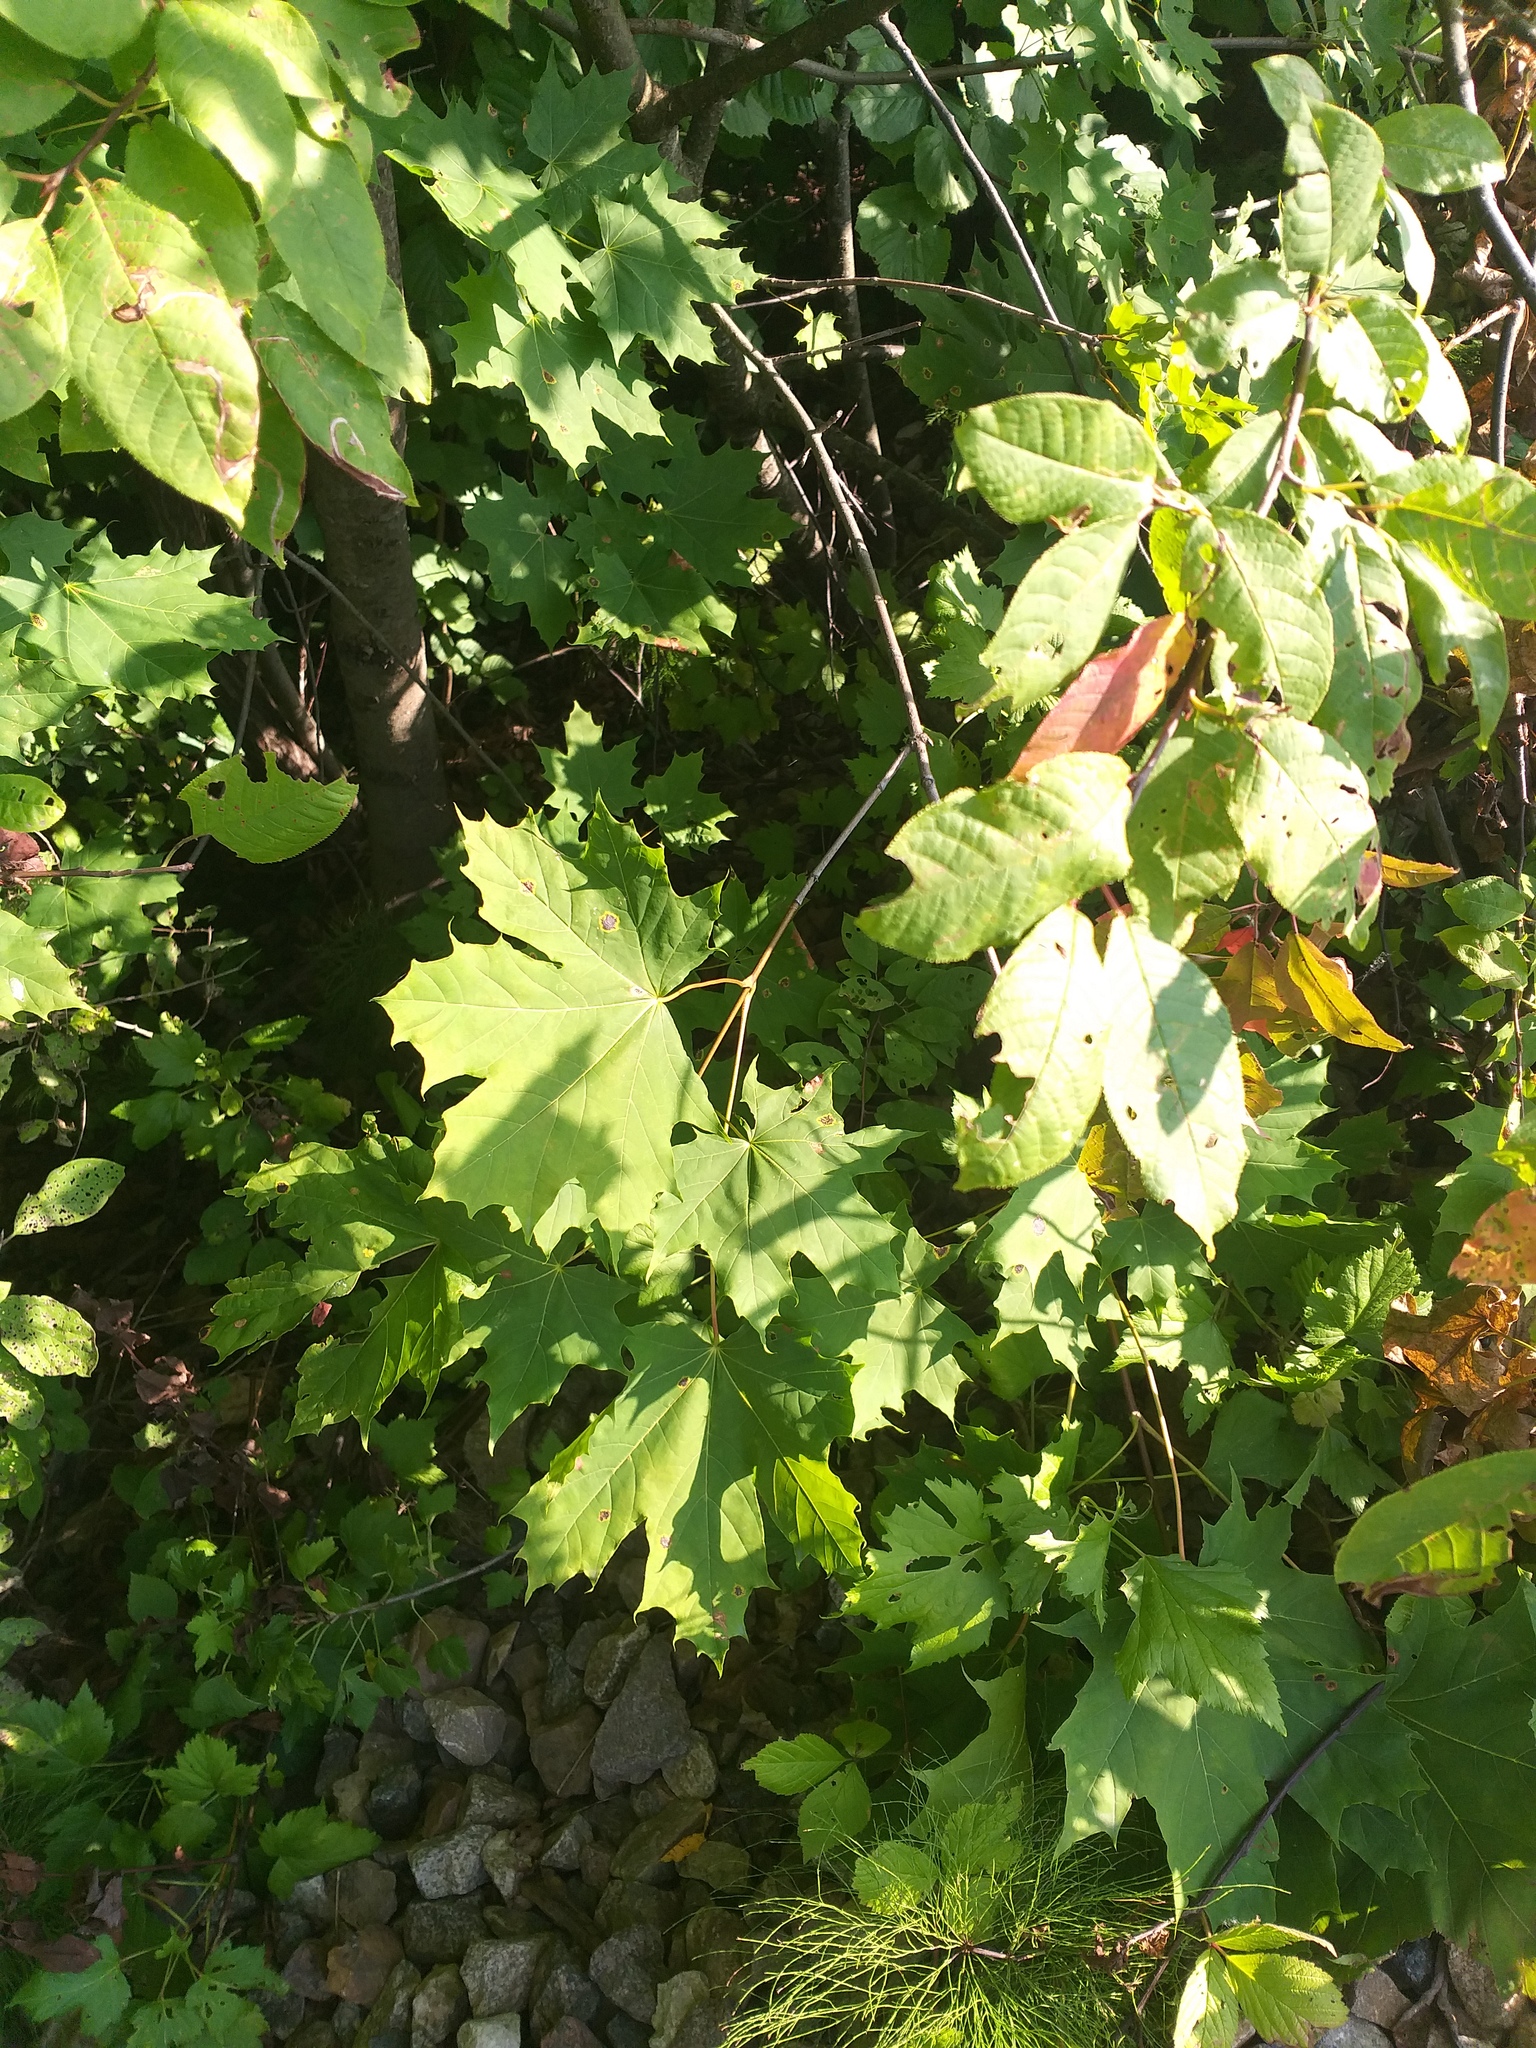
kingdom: Plantae
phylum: Tracheophyta
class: Magnoliopsida
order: Sapindales
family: Sapindaceae
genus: Acer
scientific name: Acer platanoides
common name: Norway maple
